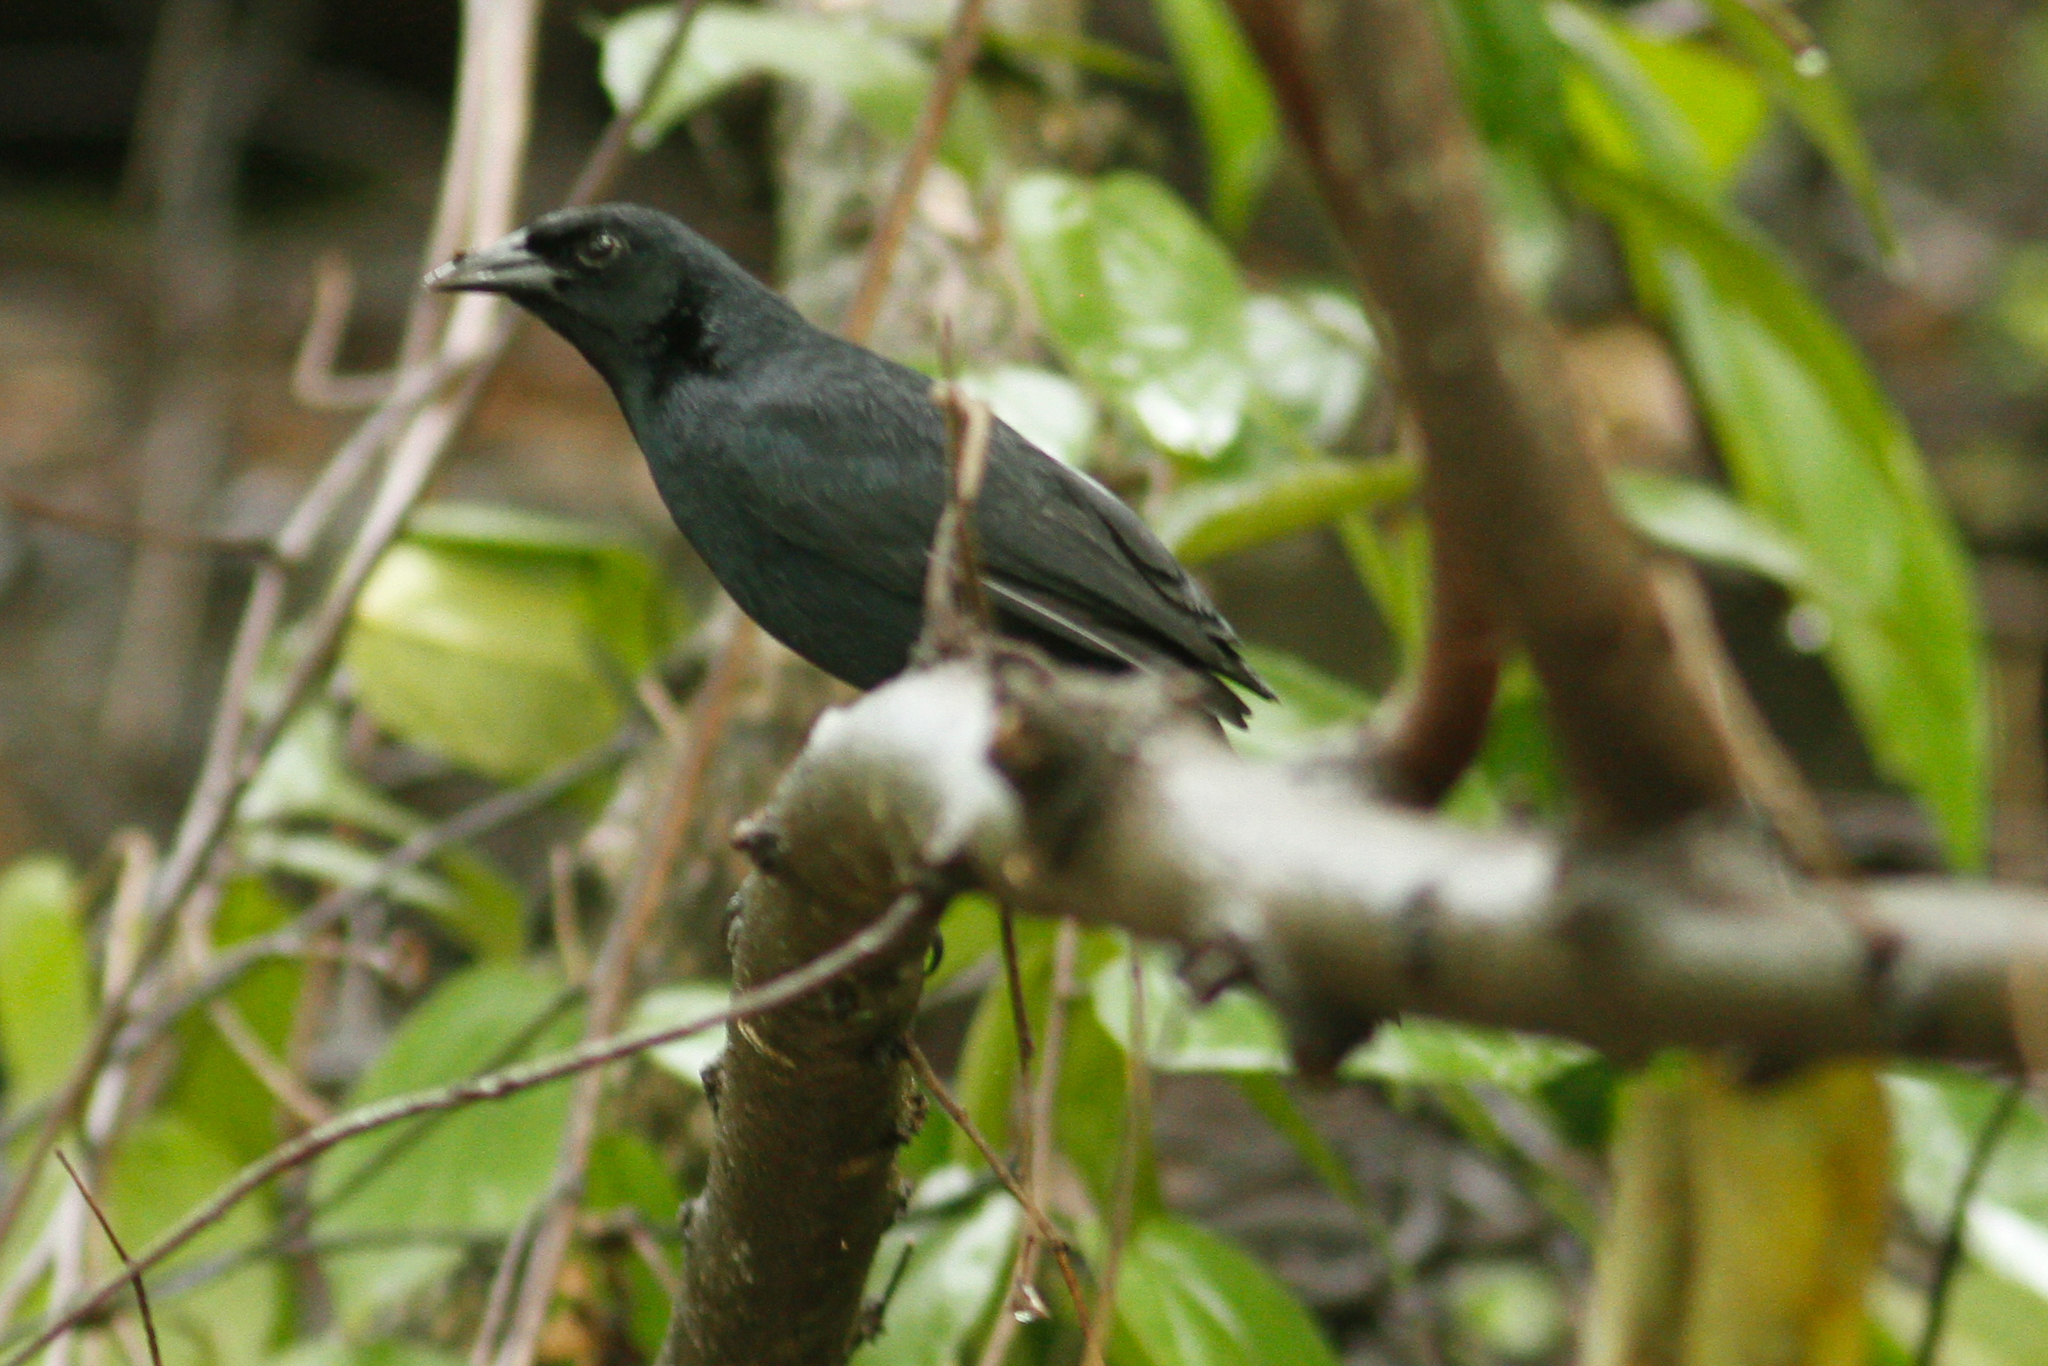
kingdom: Animalia
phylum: Chordata
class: Aves
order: Passeriformes
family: Icteridae
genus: Dives
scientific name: Dives warczewiczi
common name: Scrub blackbird
